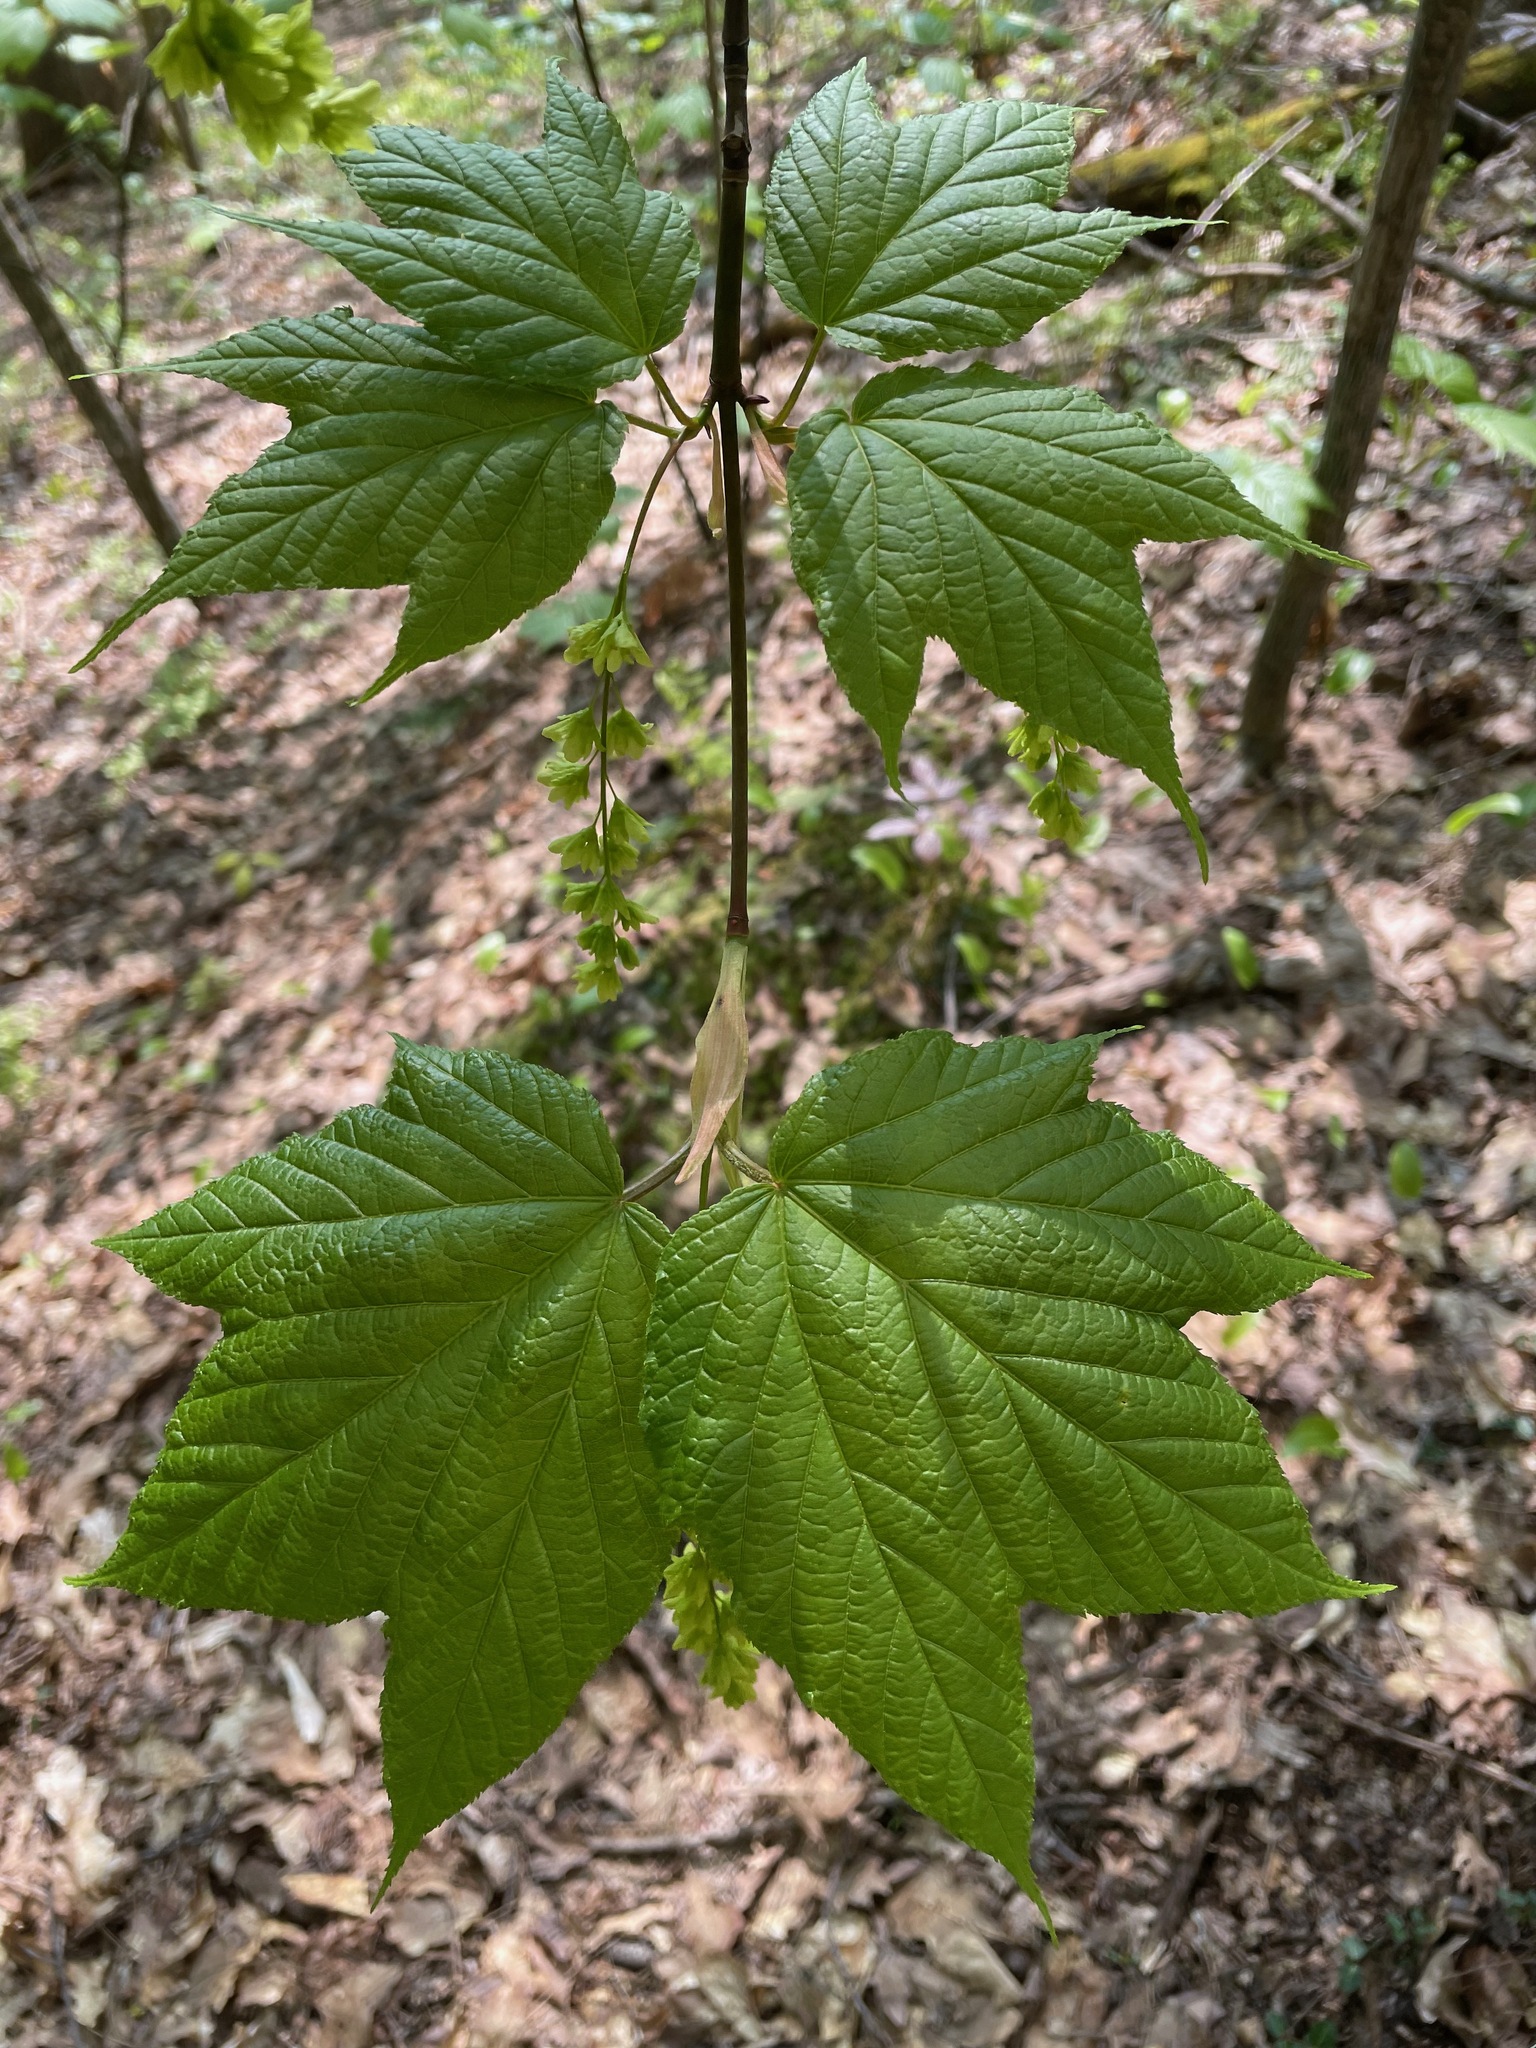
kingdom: Plantae
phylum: Tracheophyta
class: Magnoliopsida
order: Sapindales
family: Sapindaceae
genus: Acer
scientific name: Acer pensylvanicum
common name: Moosewood
